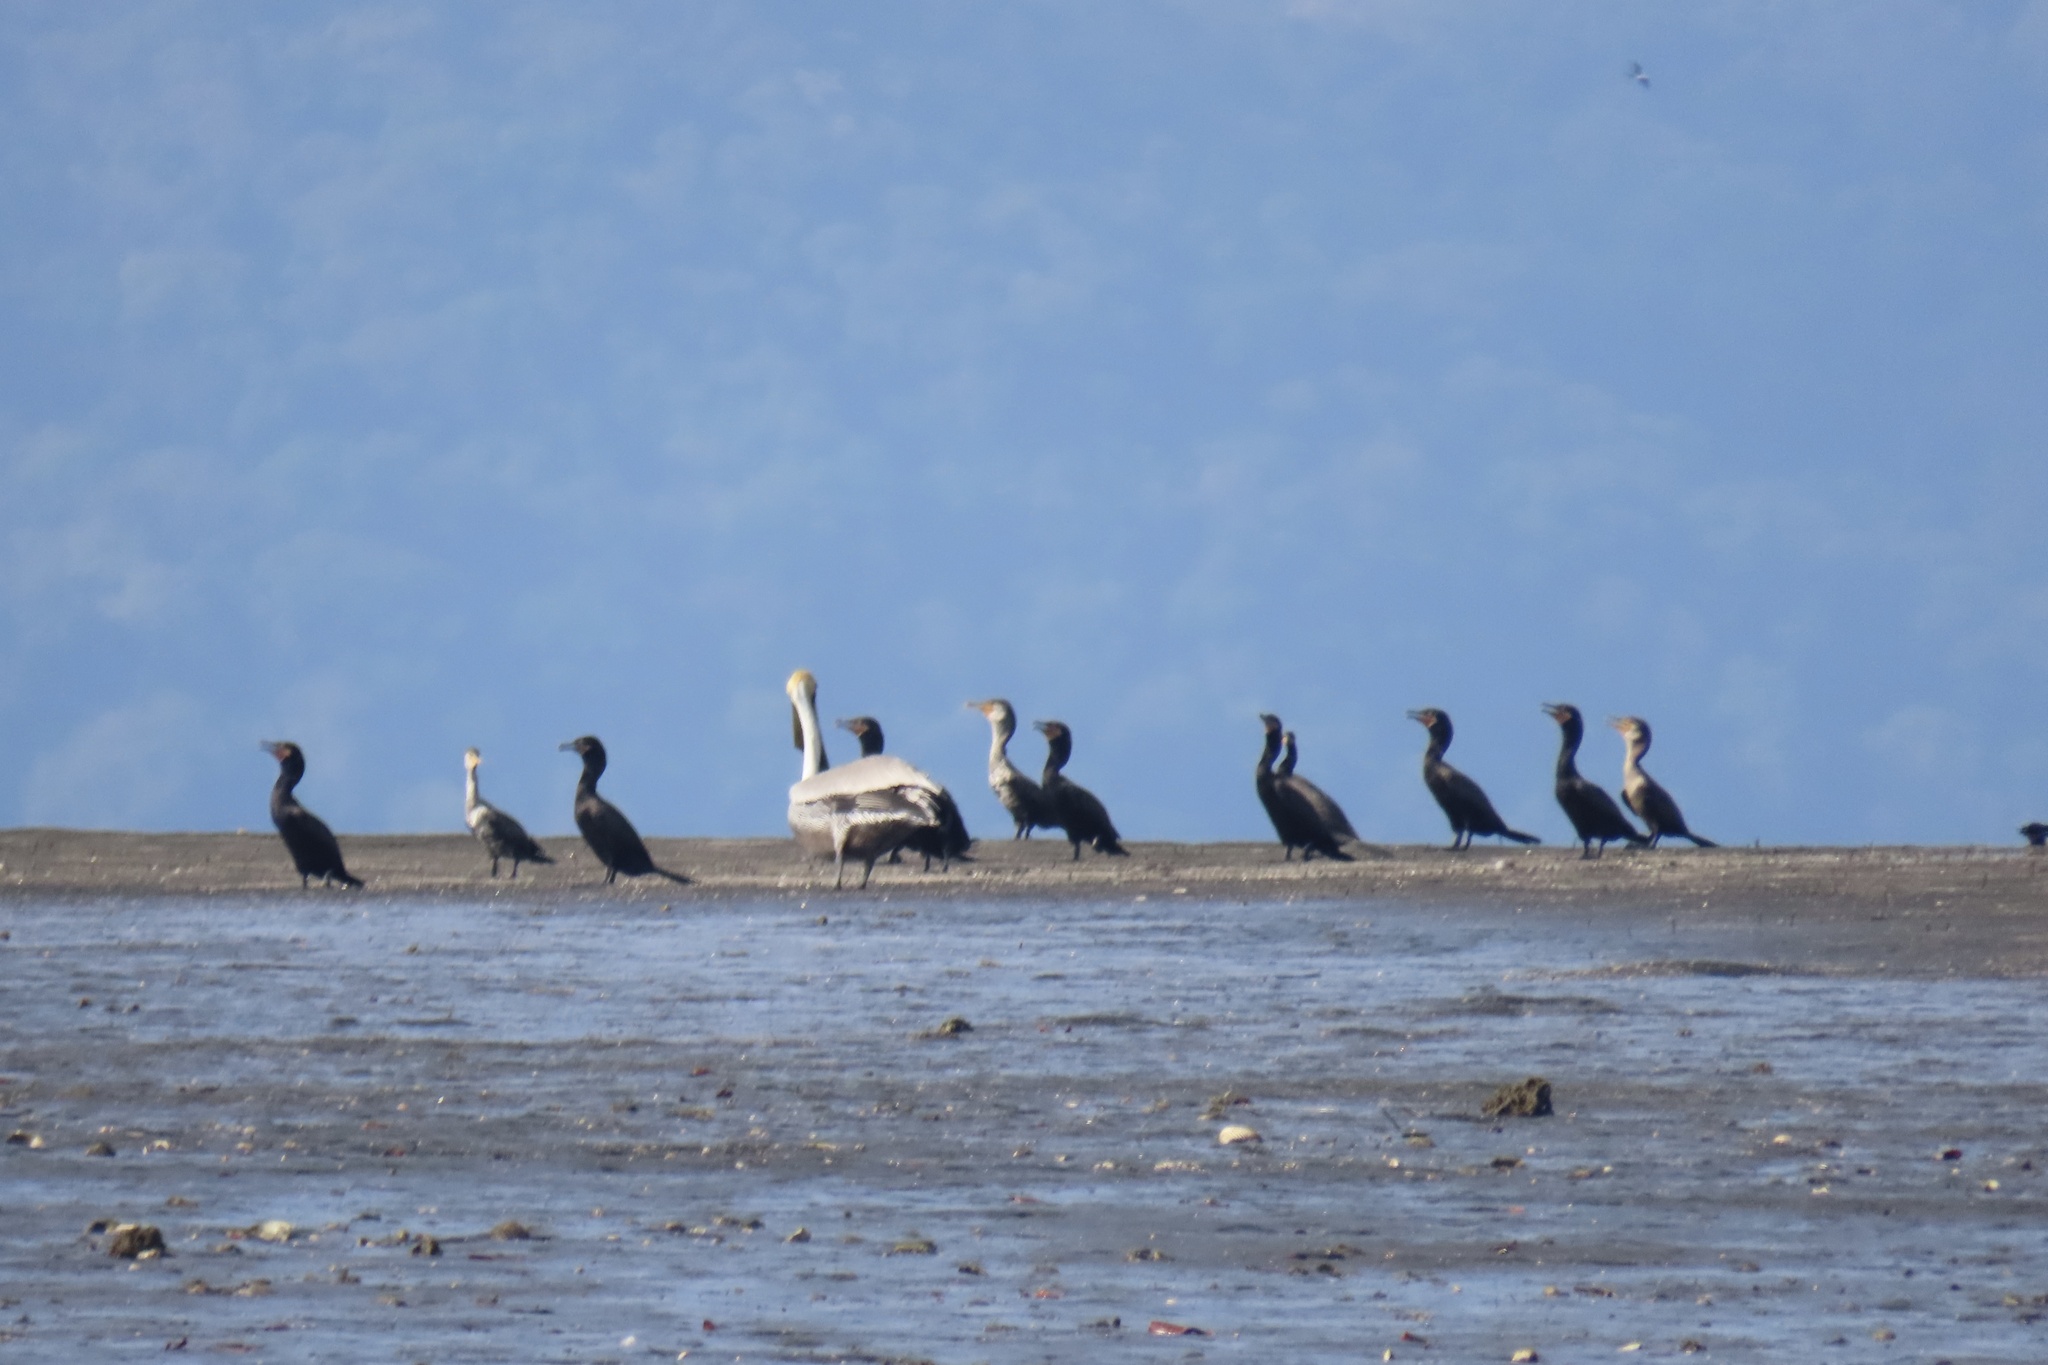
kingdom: Animalia
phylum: Chordata
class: Aves
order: Suliformes
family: Phalacrocoracidae
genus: Phalacrocorax
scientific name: Phalacrocorax brasilianus
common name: Neotropic cormorant
